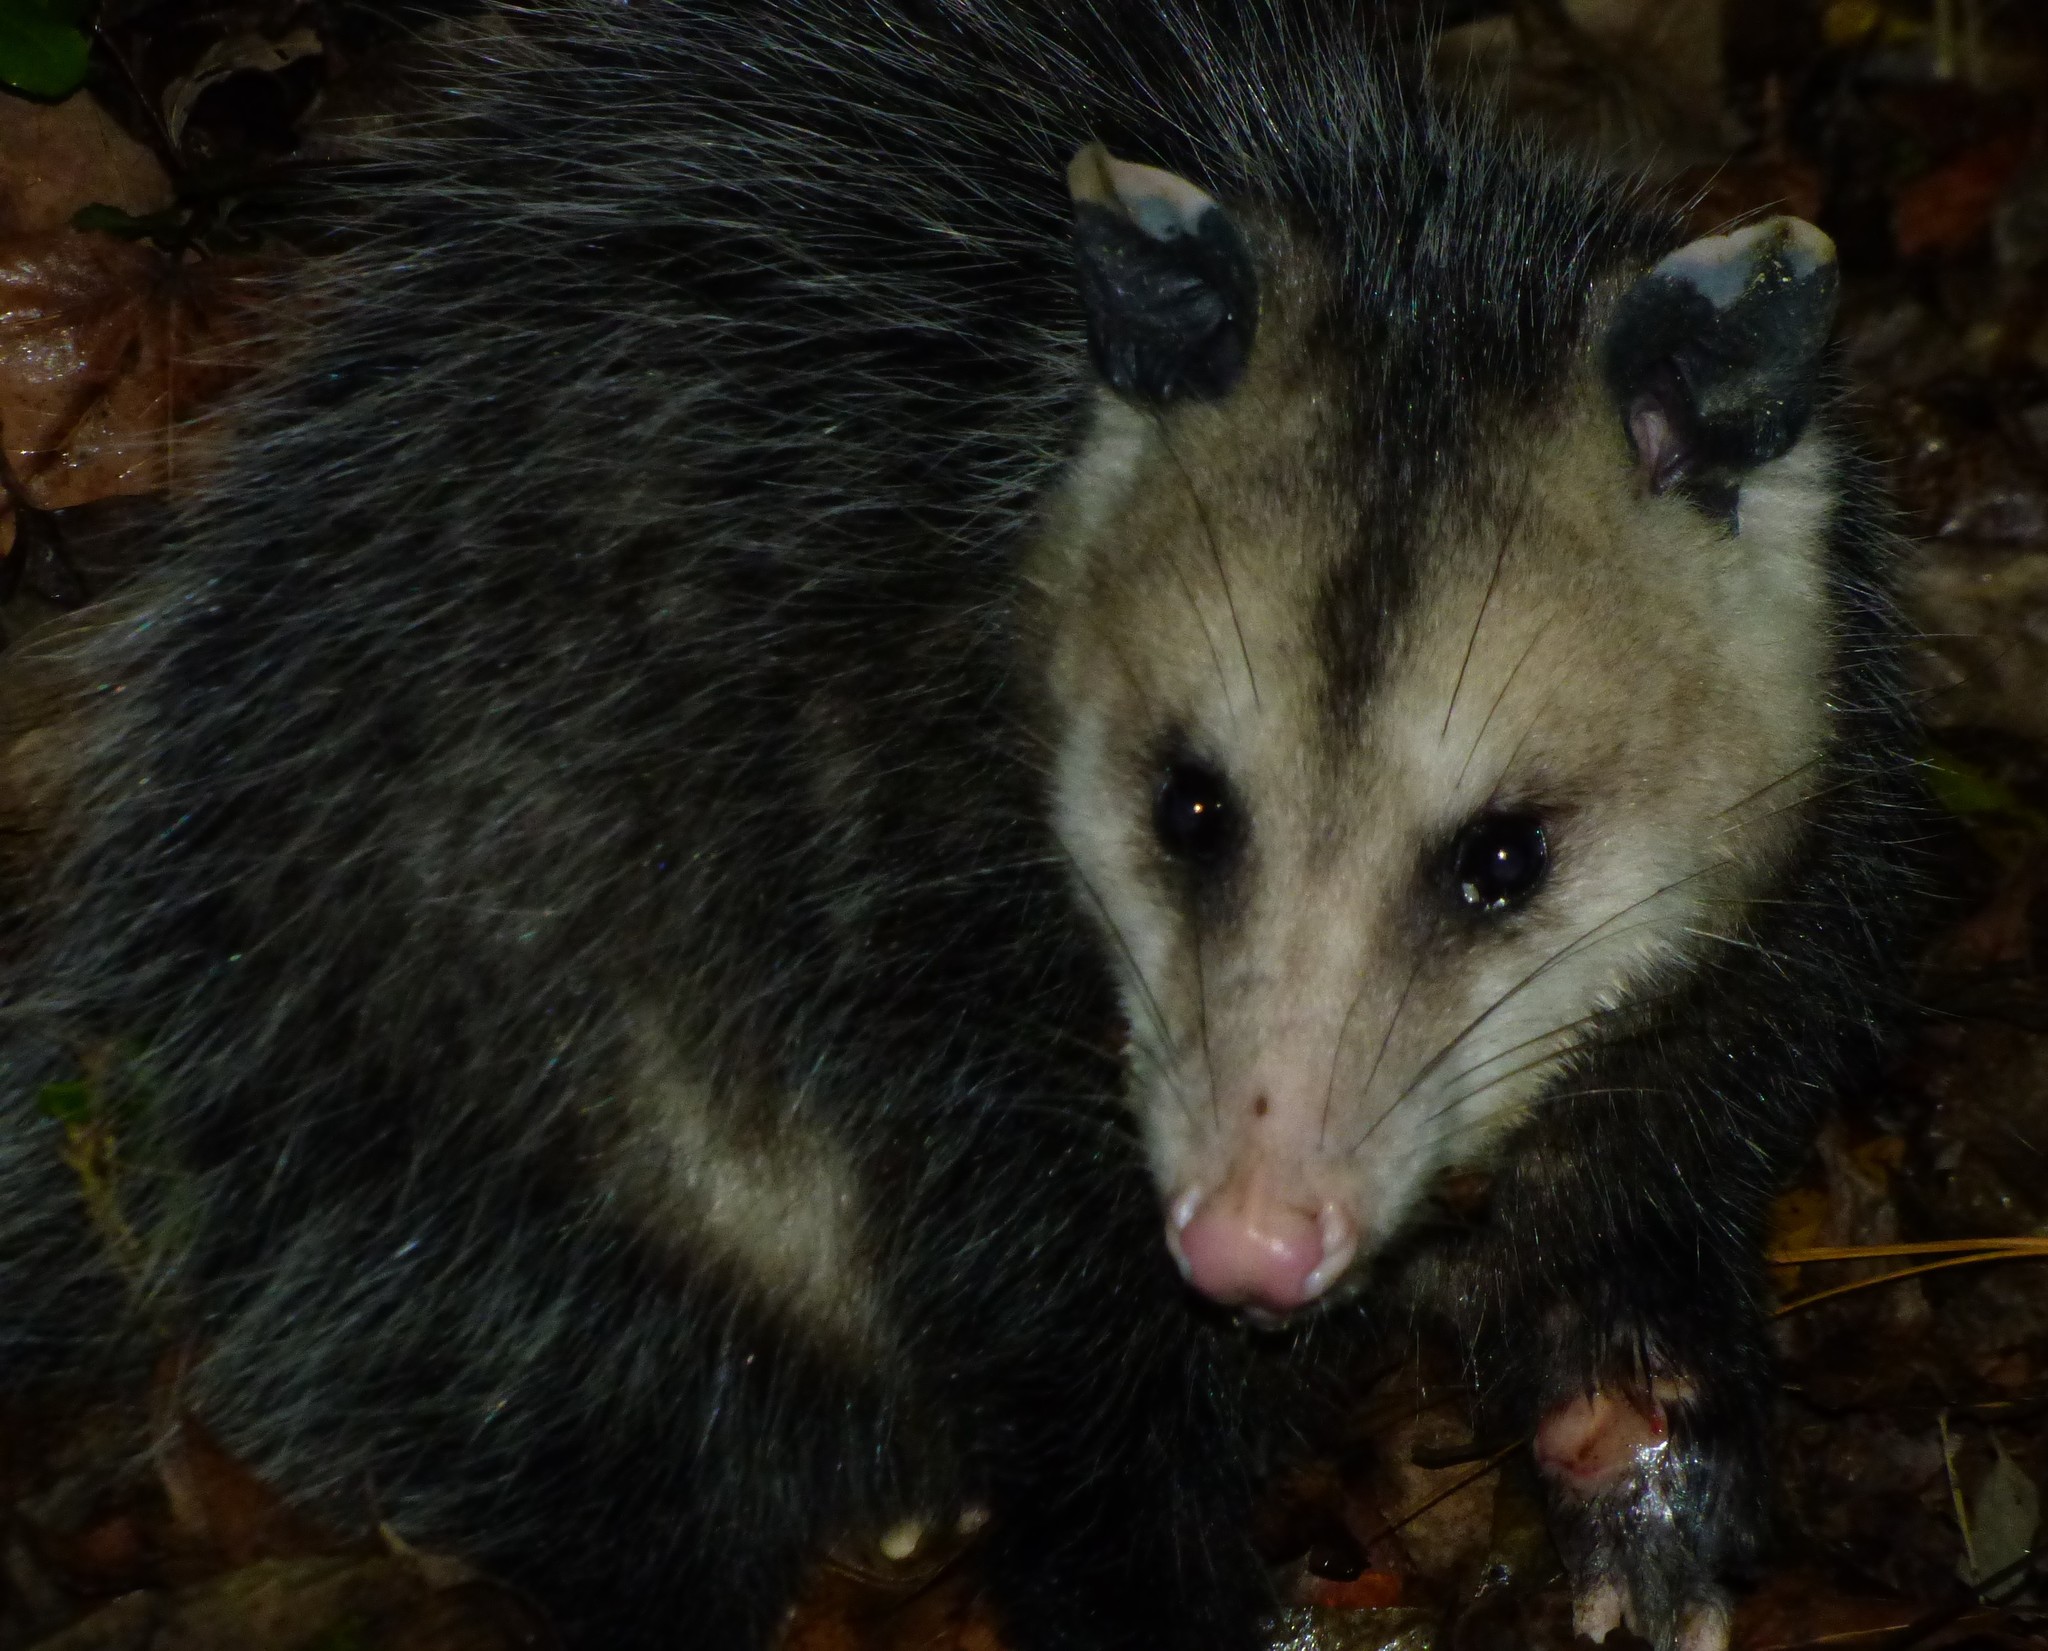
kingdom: Animalia
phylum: Chordata
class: Mammalia
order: Didelphimorphia
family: Didelphidae
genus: Didelphis
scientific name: Didelphis virginiana
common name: Virginia opossum
